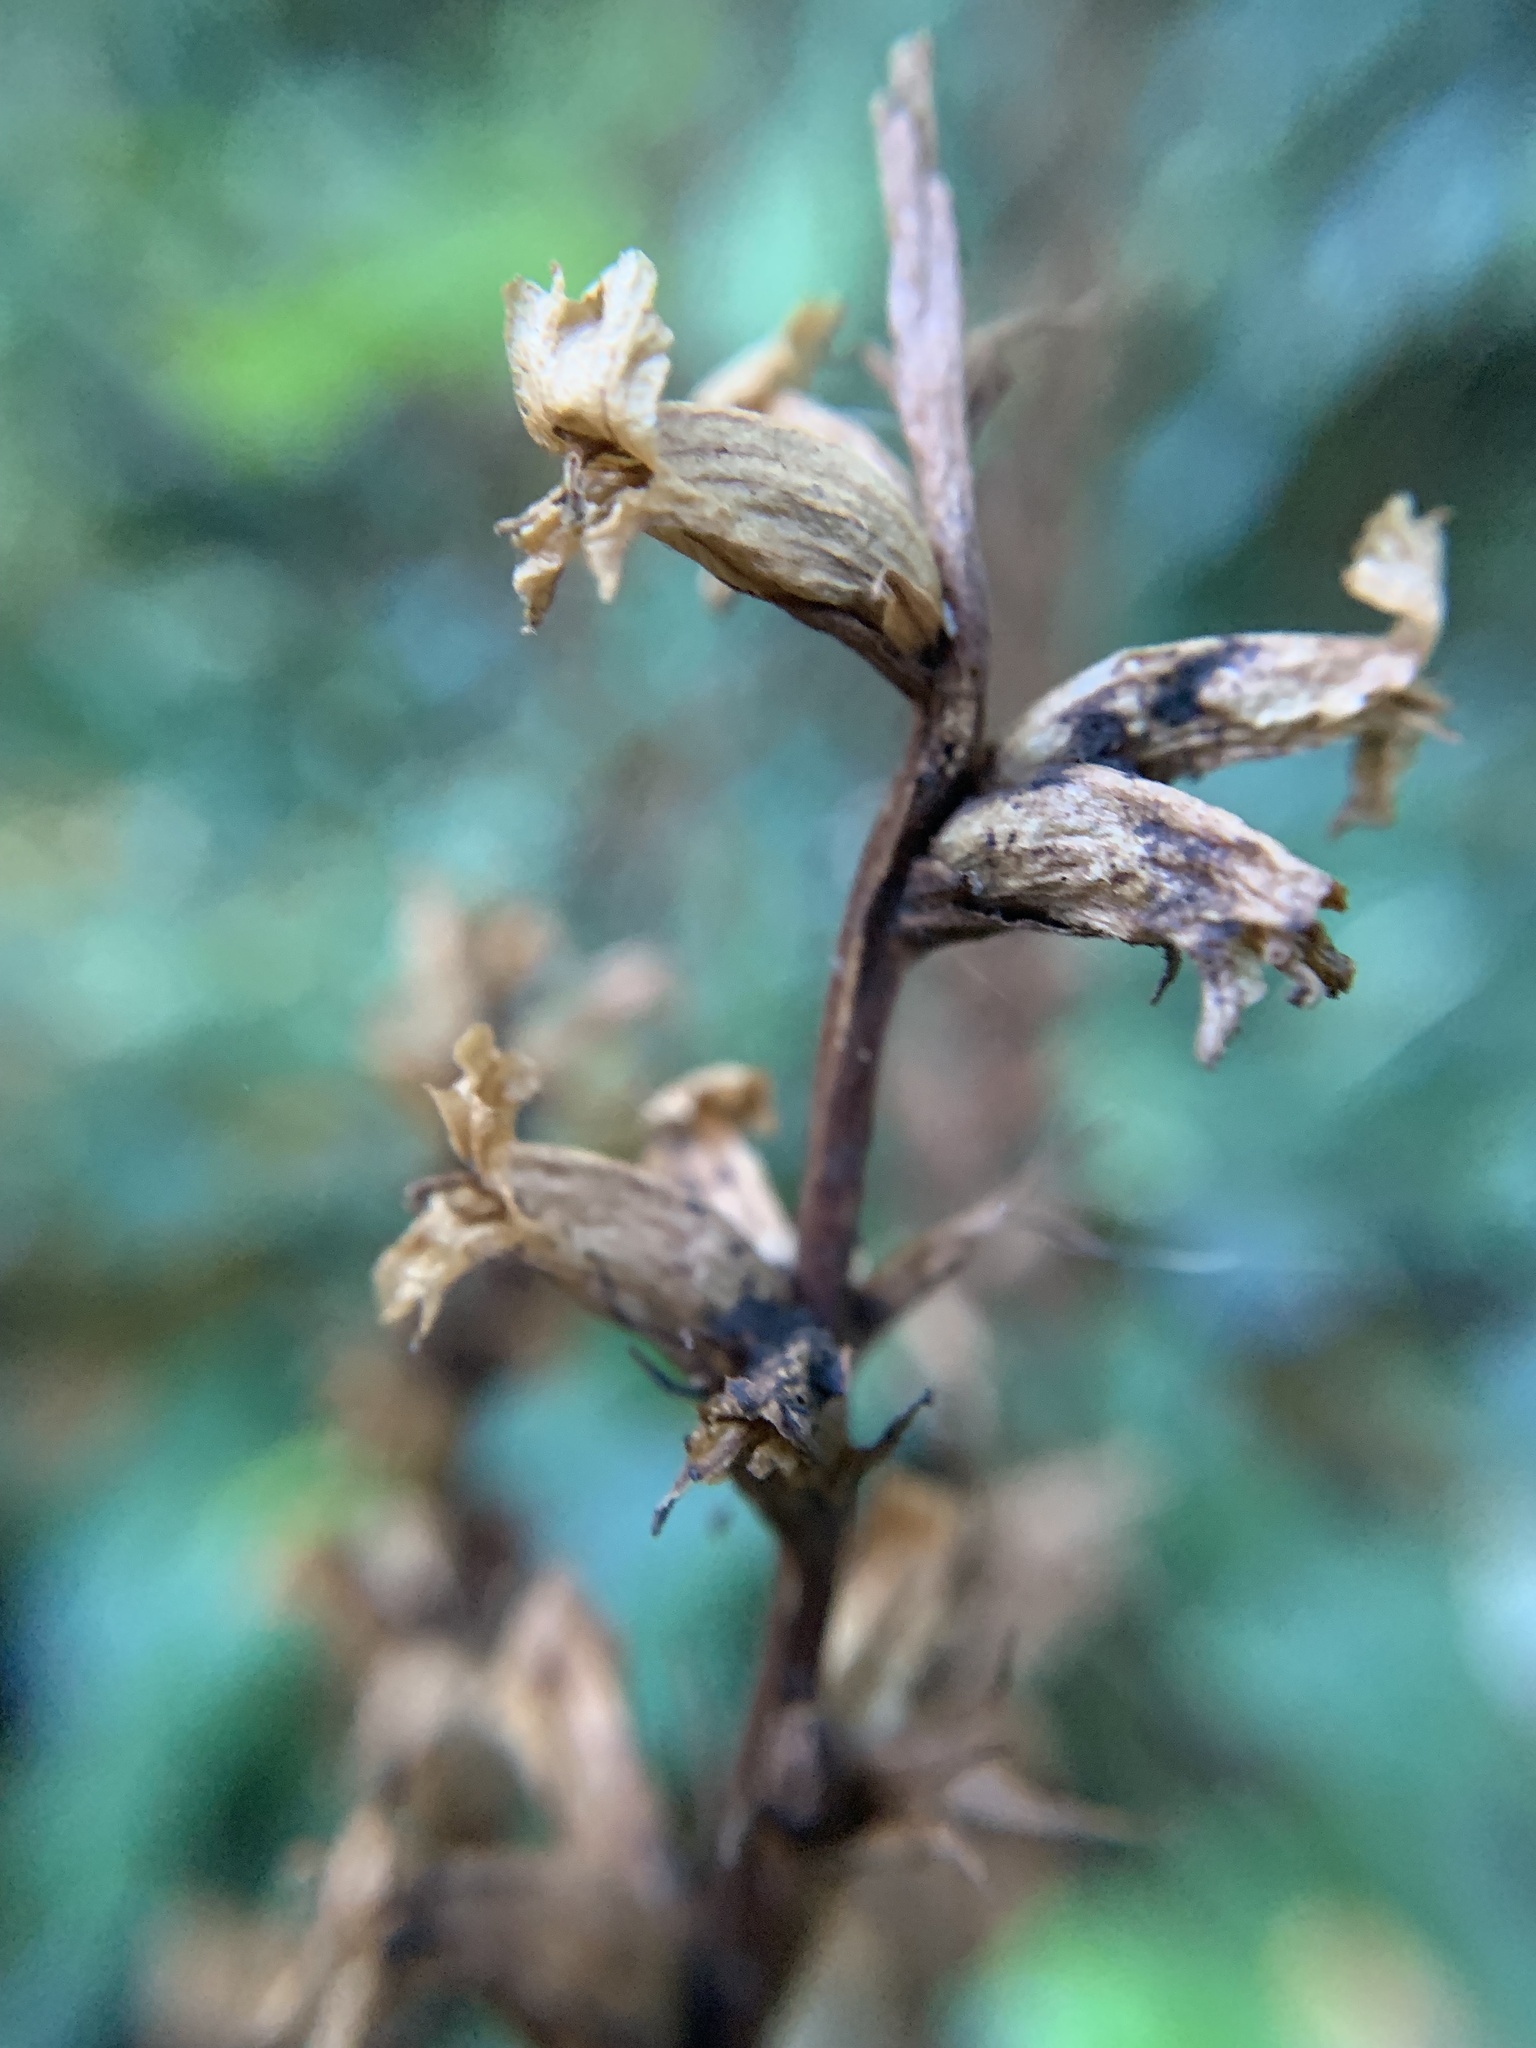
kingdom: Plantae
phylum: Tracheophyta
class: Magnoliopsida
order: Lamiales
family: Orobanchaceae
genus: Orobanche
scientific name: Orobanche hederae
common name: Ivy broomrape
